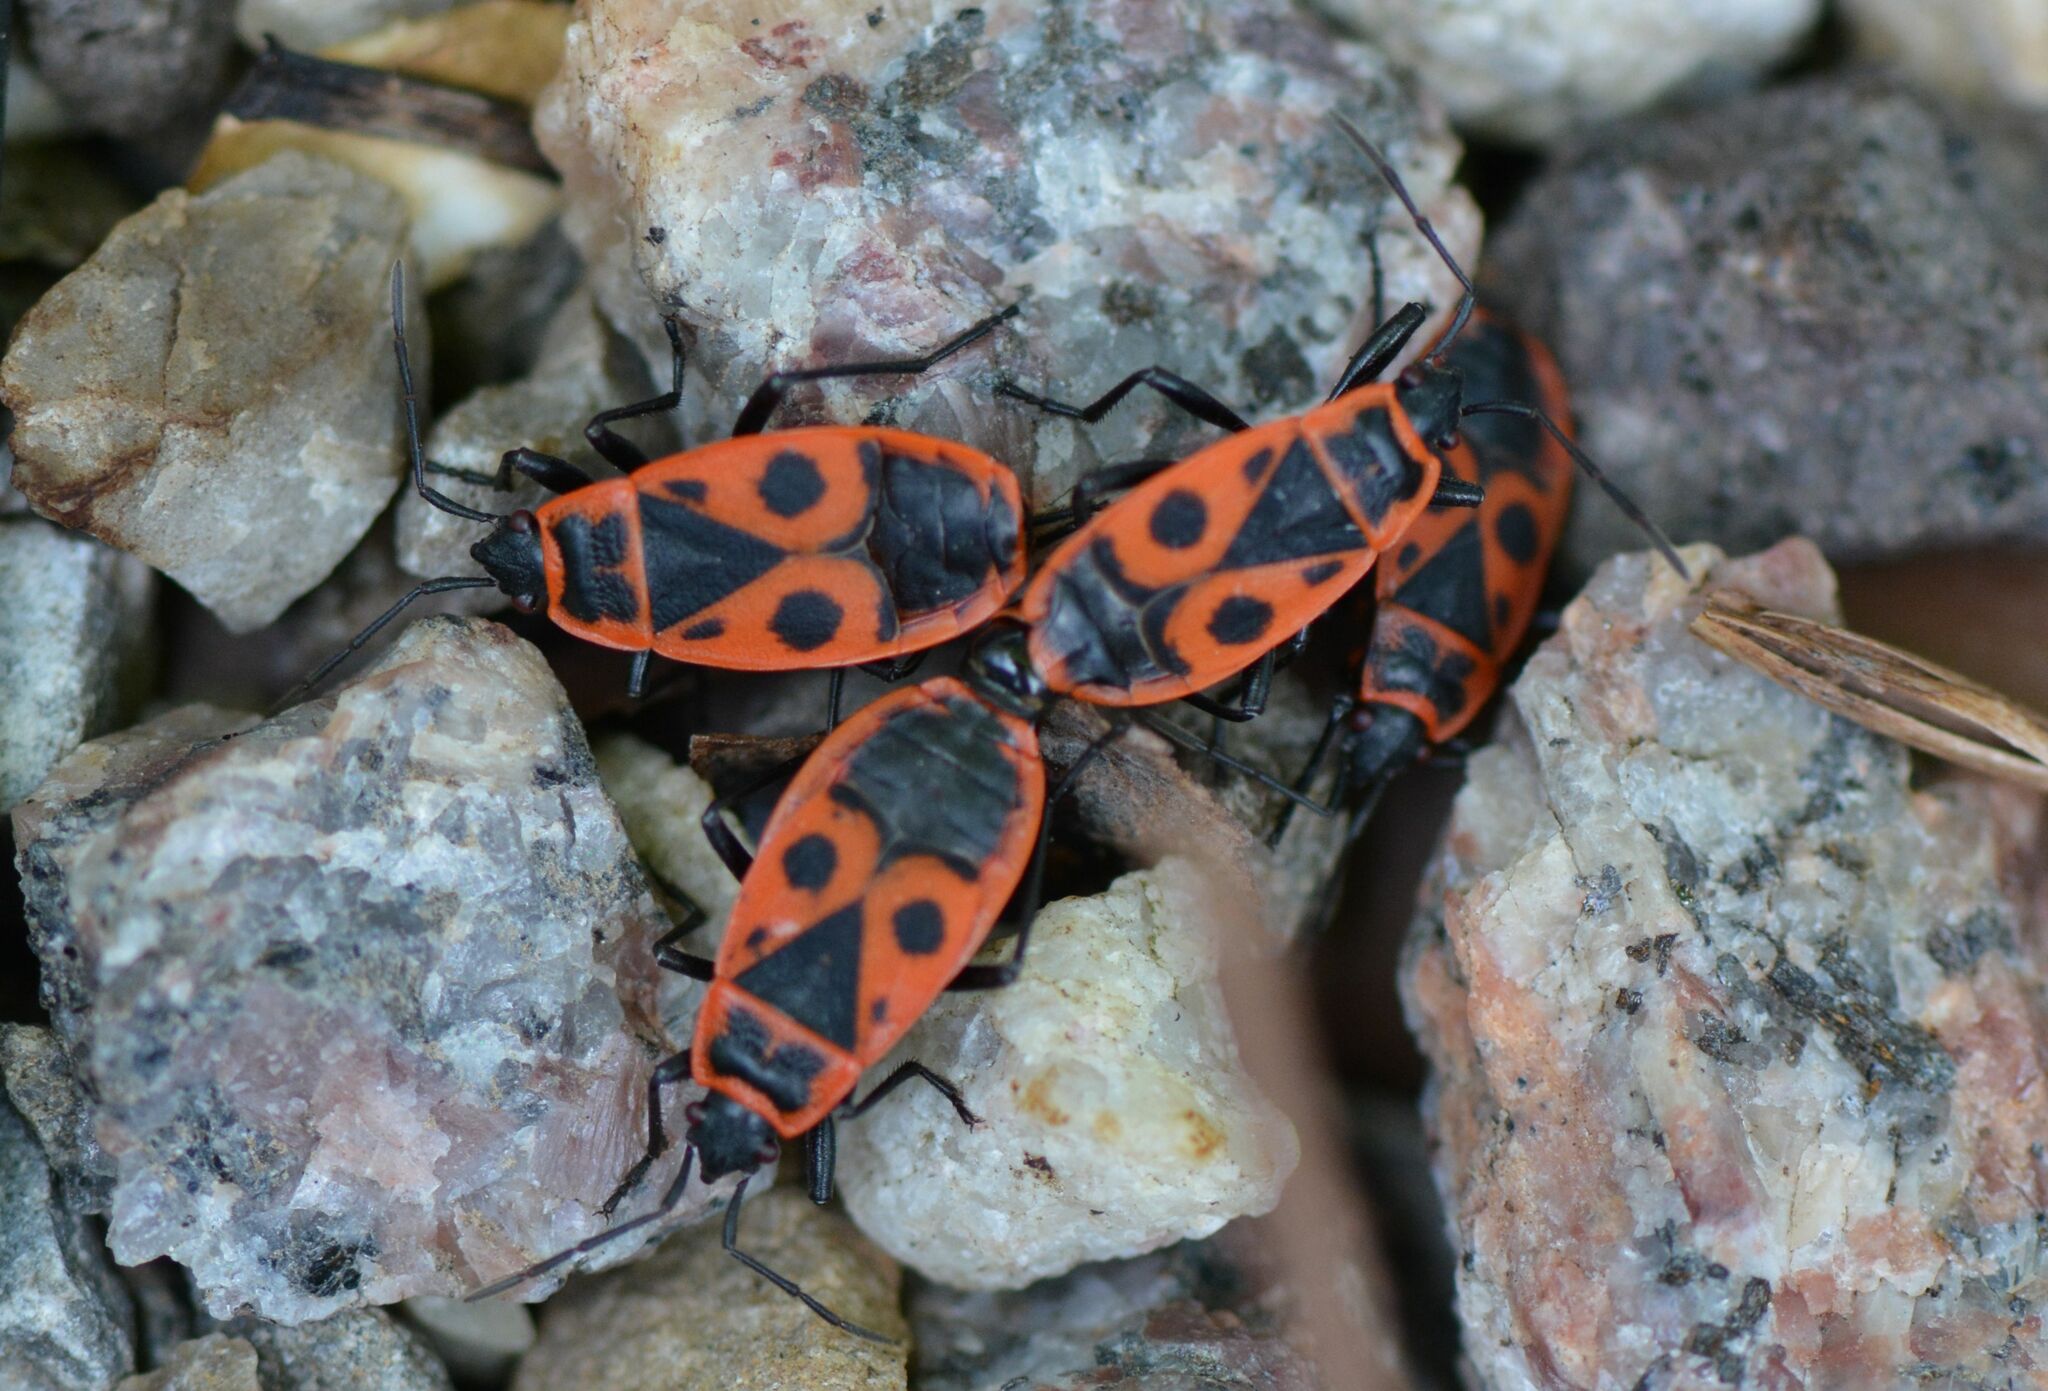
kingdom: Animalia
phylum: Arthropoda
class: Insecta
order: Hemiptera
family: Pyrrhocoridae
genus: Pyrrhocoris
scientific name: Pyrrhocoris apterus
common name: Firebug
